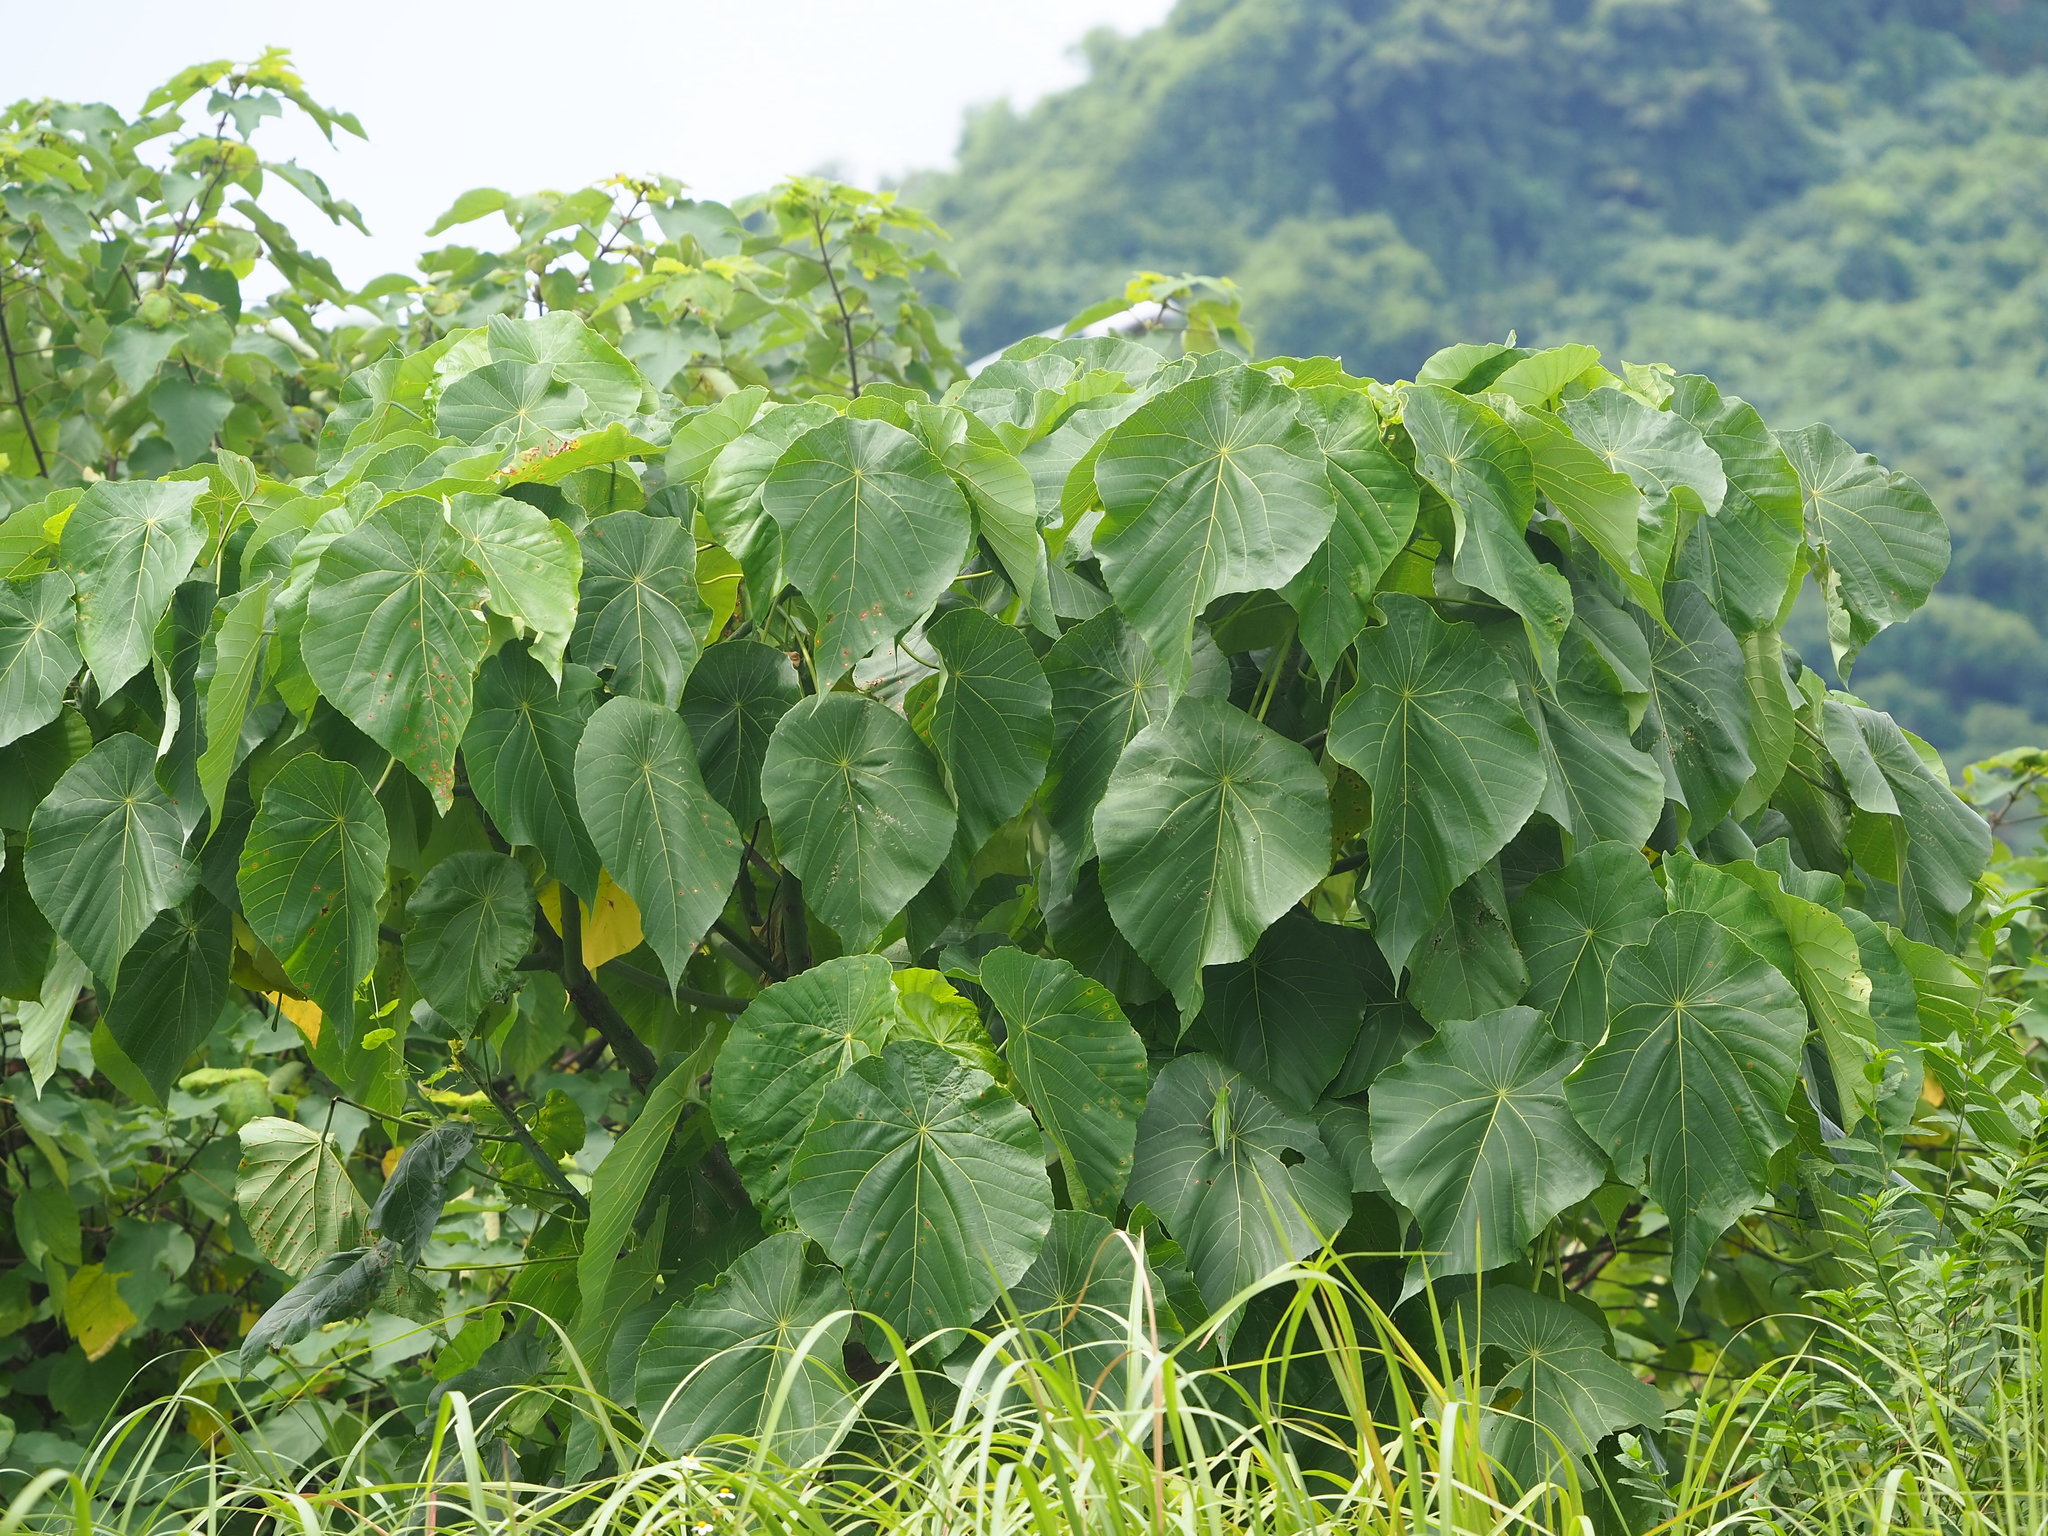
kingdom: Plantae
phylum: Tracheophyta
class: Magnoliopsida
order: Malpighiales
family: Euphorbiaceae
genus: Macaranga
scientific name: Macaranga tanarius
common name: Parasol leaf tree
